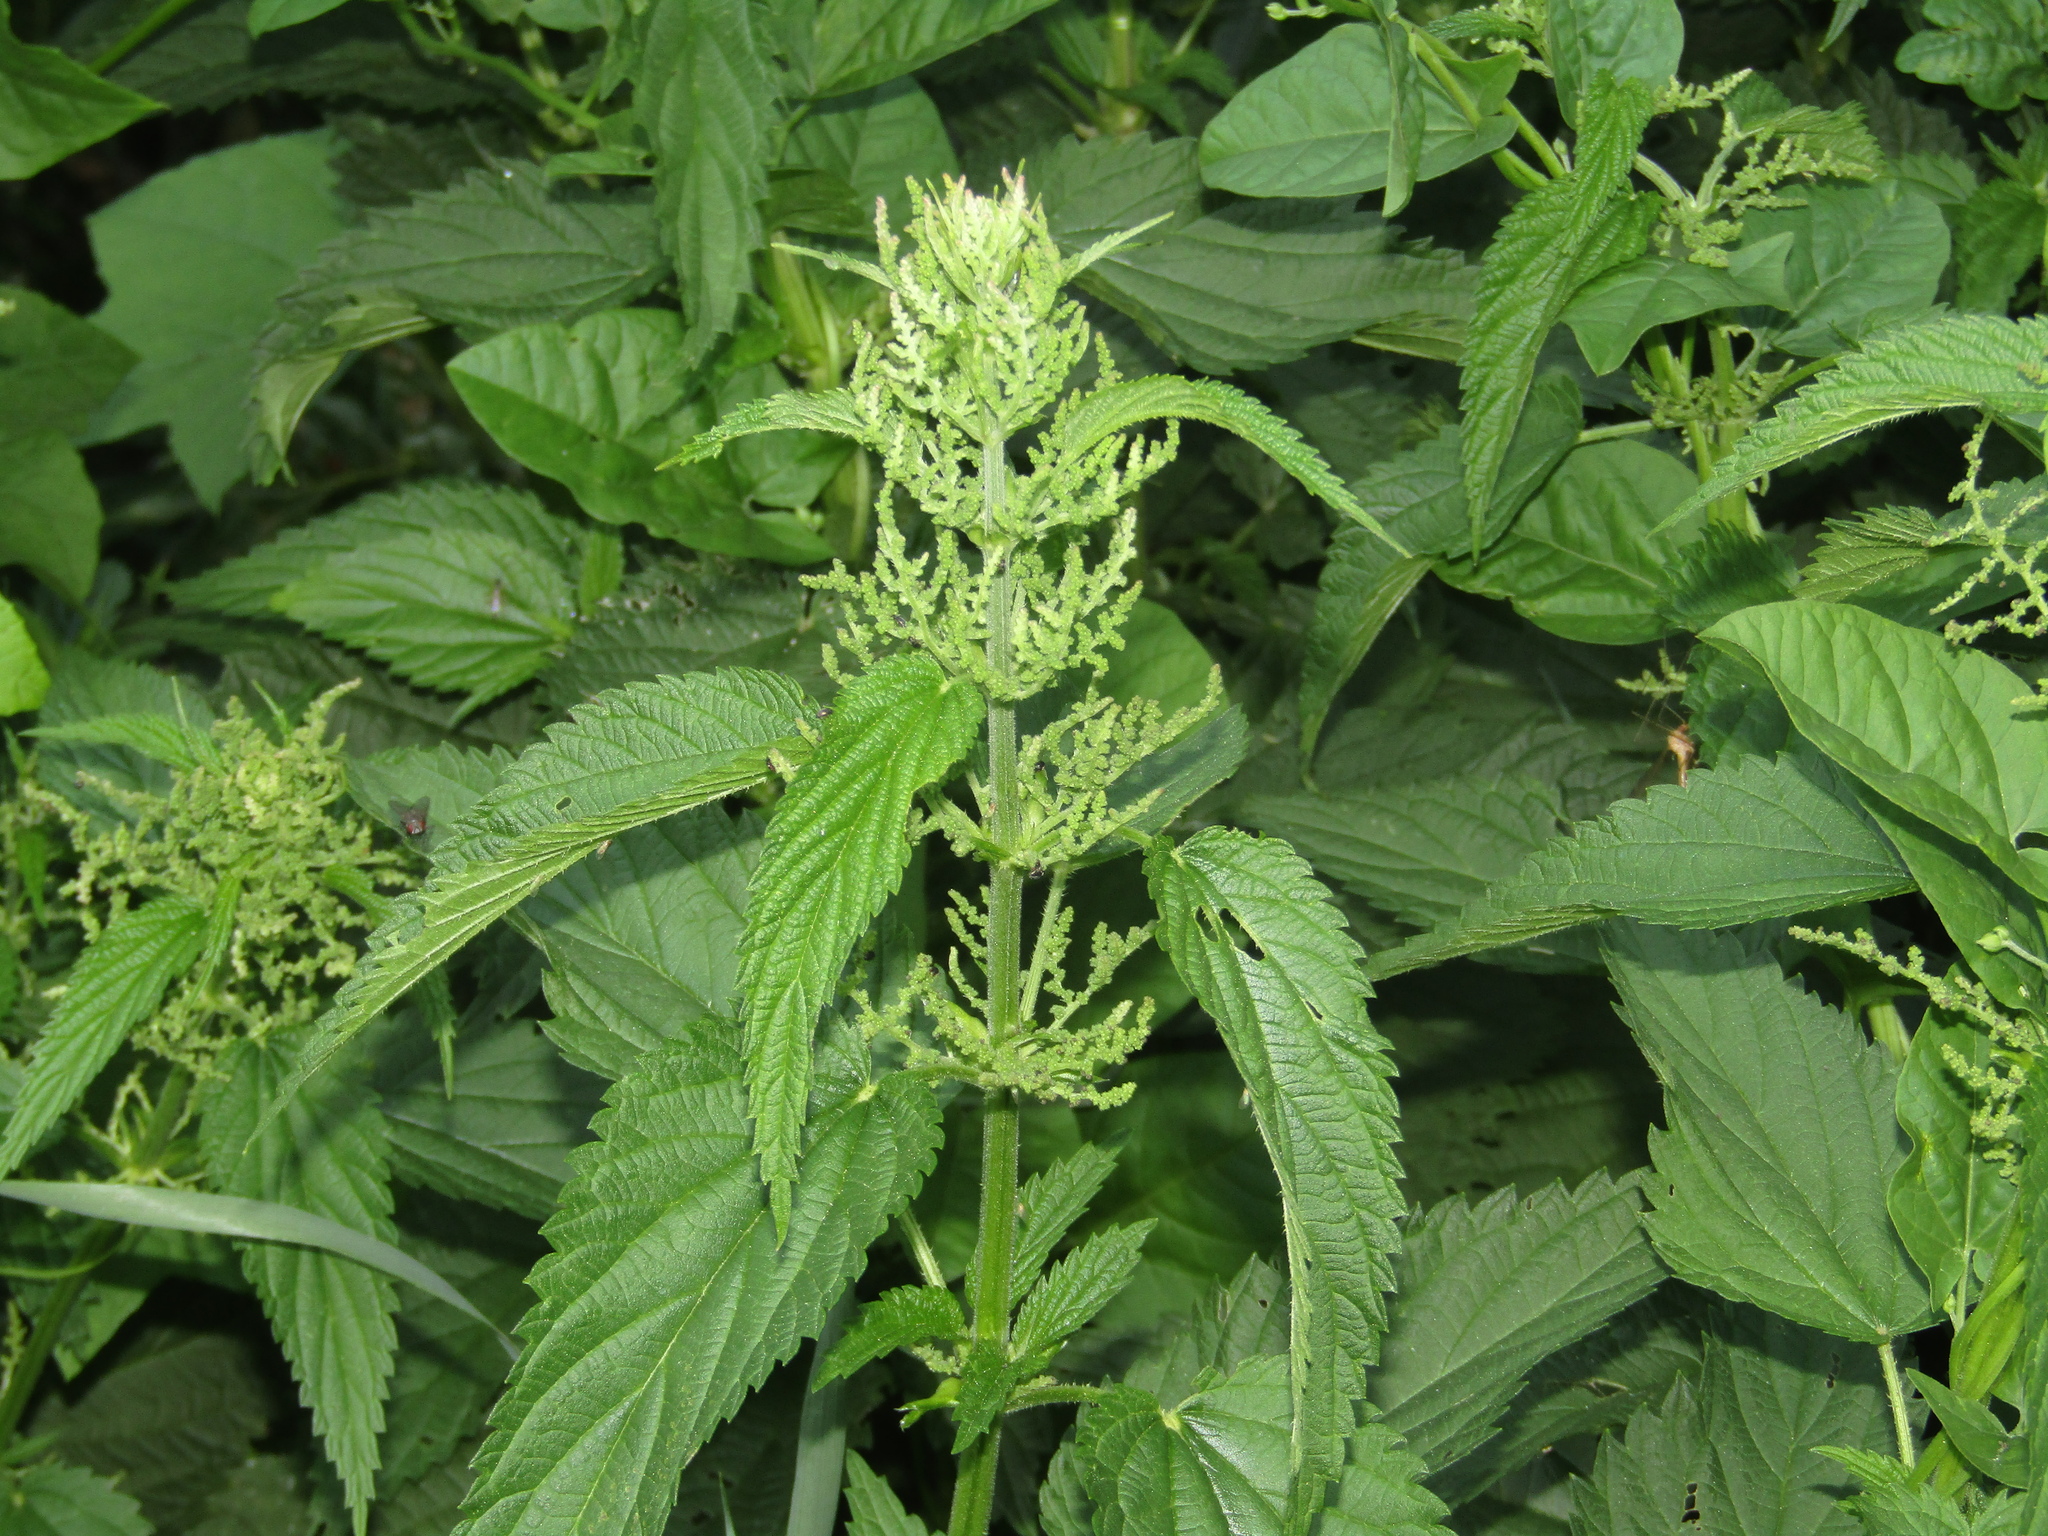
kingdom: Plantae
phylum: Tracheophyta
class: Magnoliopsida
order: Rosales
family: Urticaceae
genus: Urtica
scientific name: Urtica dioica
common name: Common nettle
